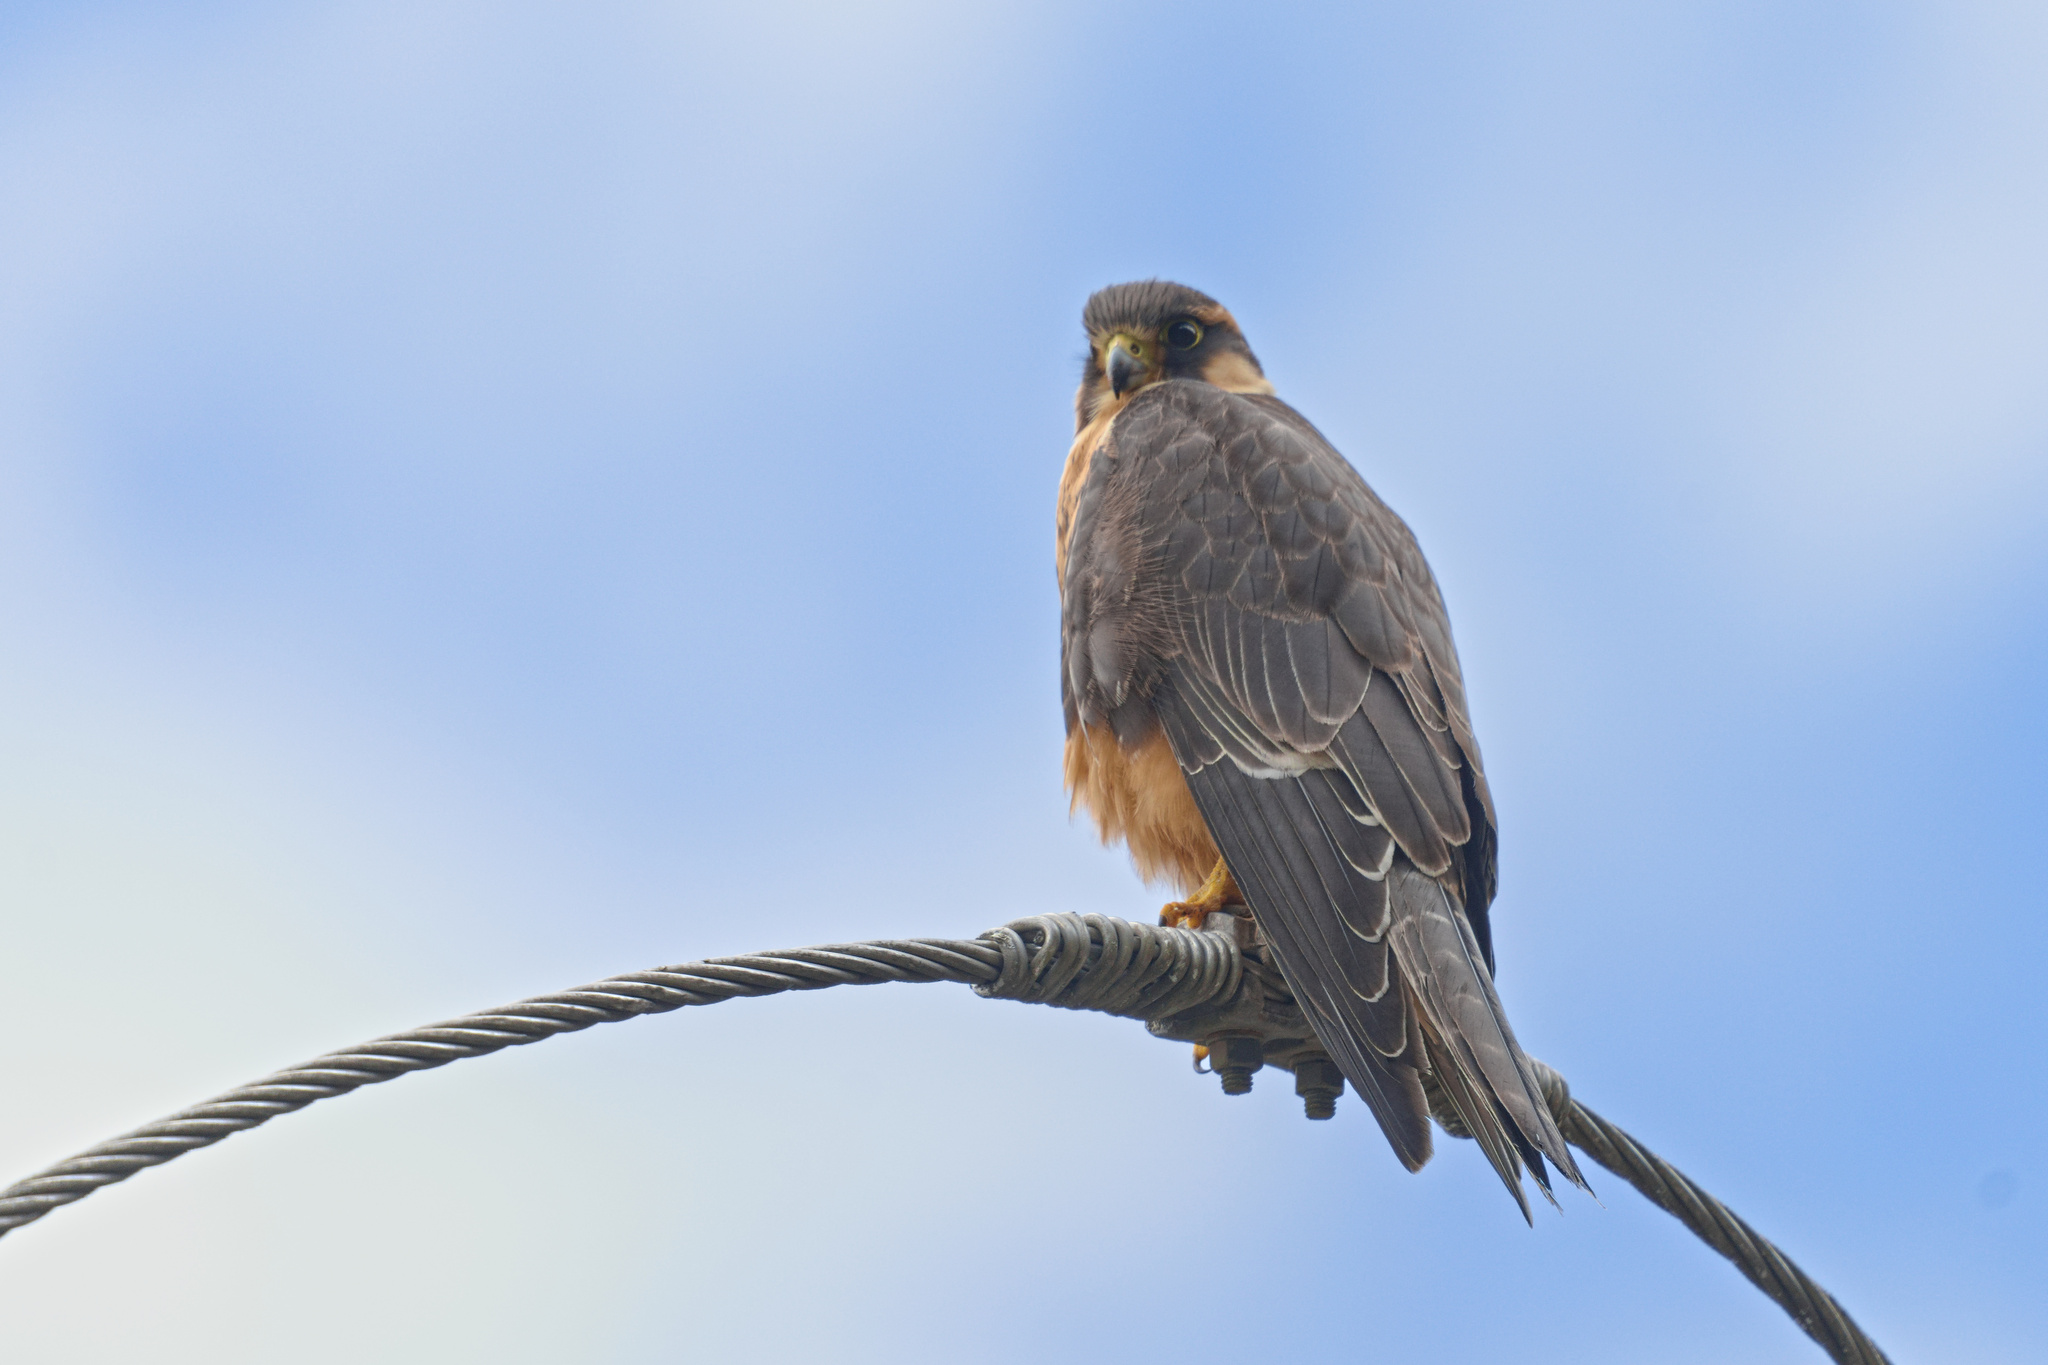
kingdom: Animalia
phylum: Chordata
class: Aves
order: Falconiformes
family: Falconidae
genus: Falco
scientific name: Falco femoralis
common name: Aplomado falcon
